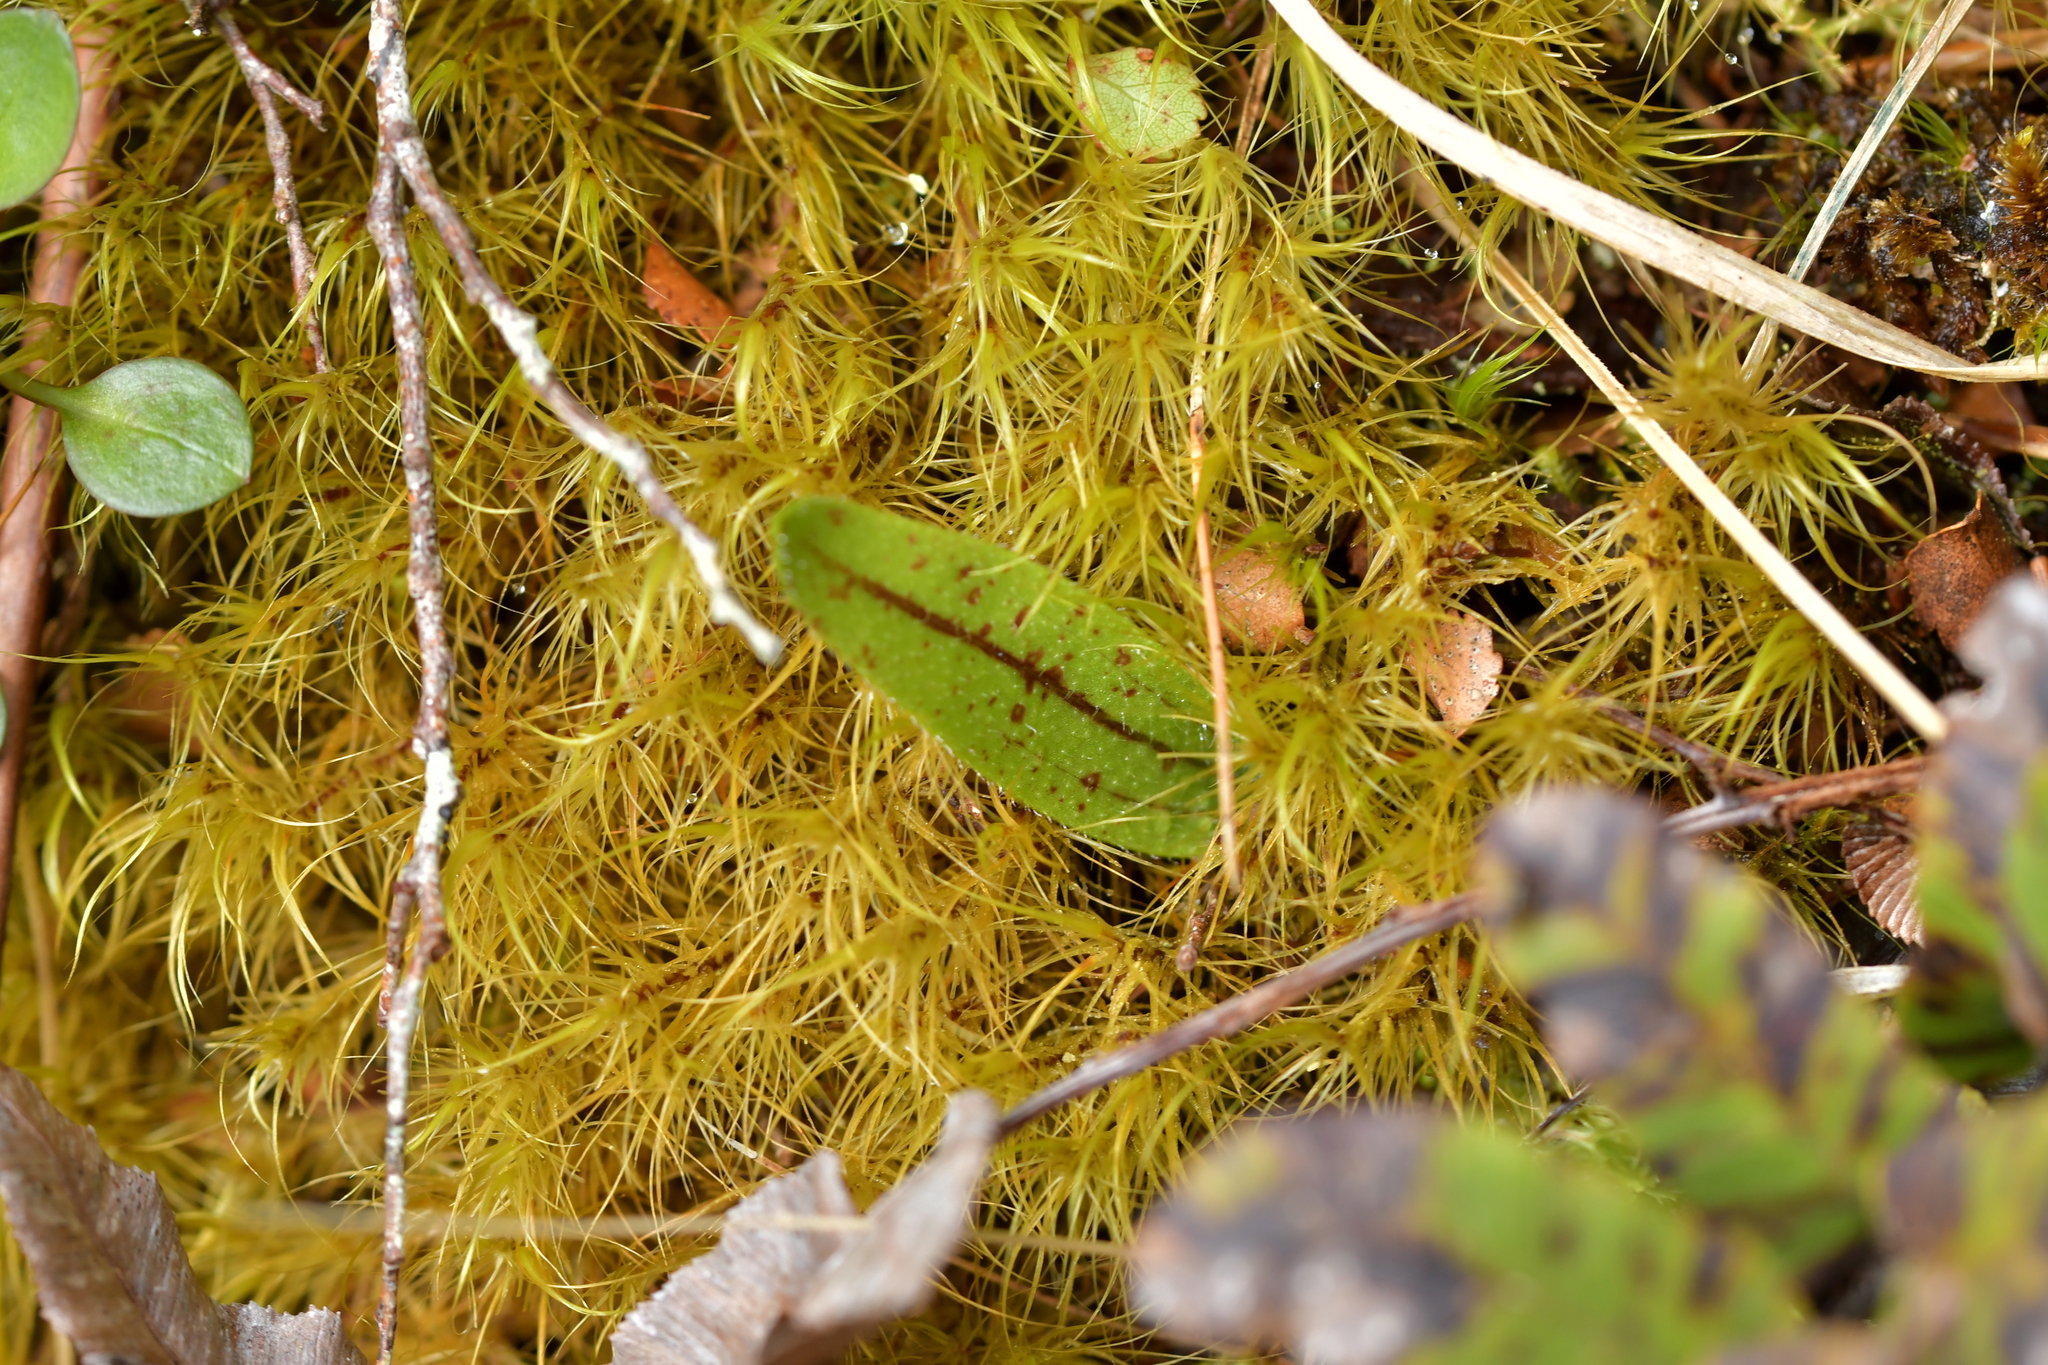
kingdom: Plantae
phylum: Tracheophyta
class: Liliopsida
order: Asparagales
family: Orchidaceae
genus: Aporostylis
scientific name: Aporostylis bifolia
